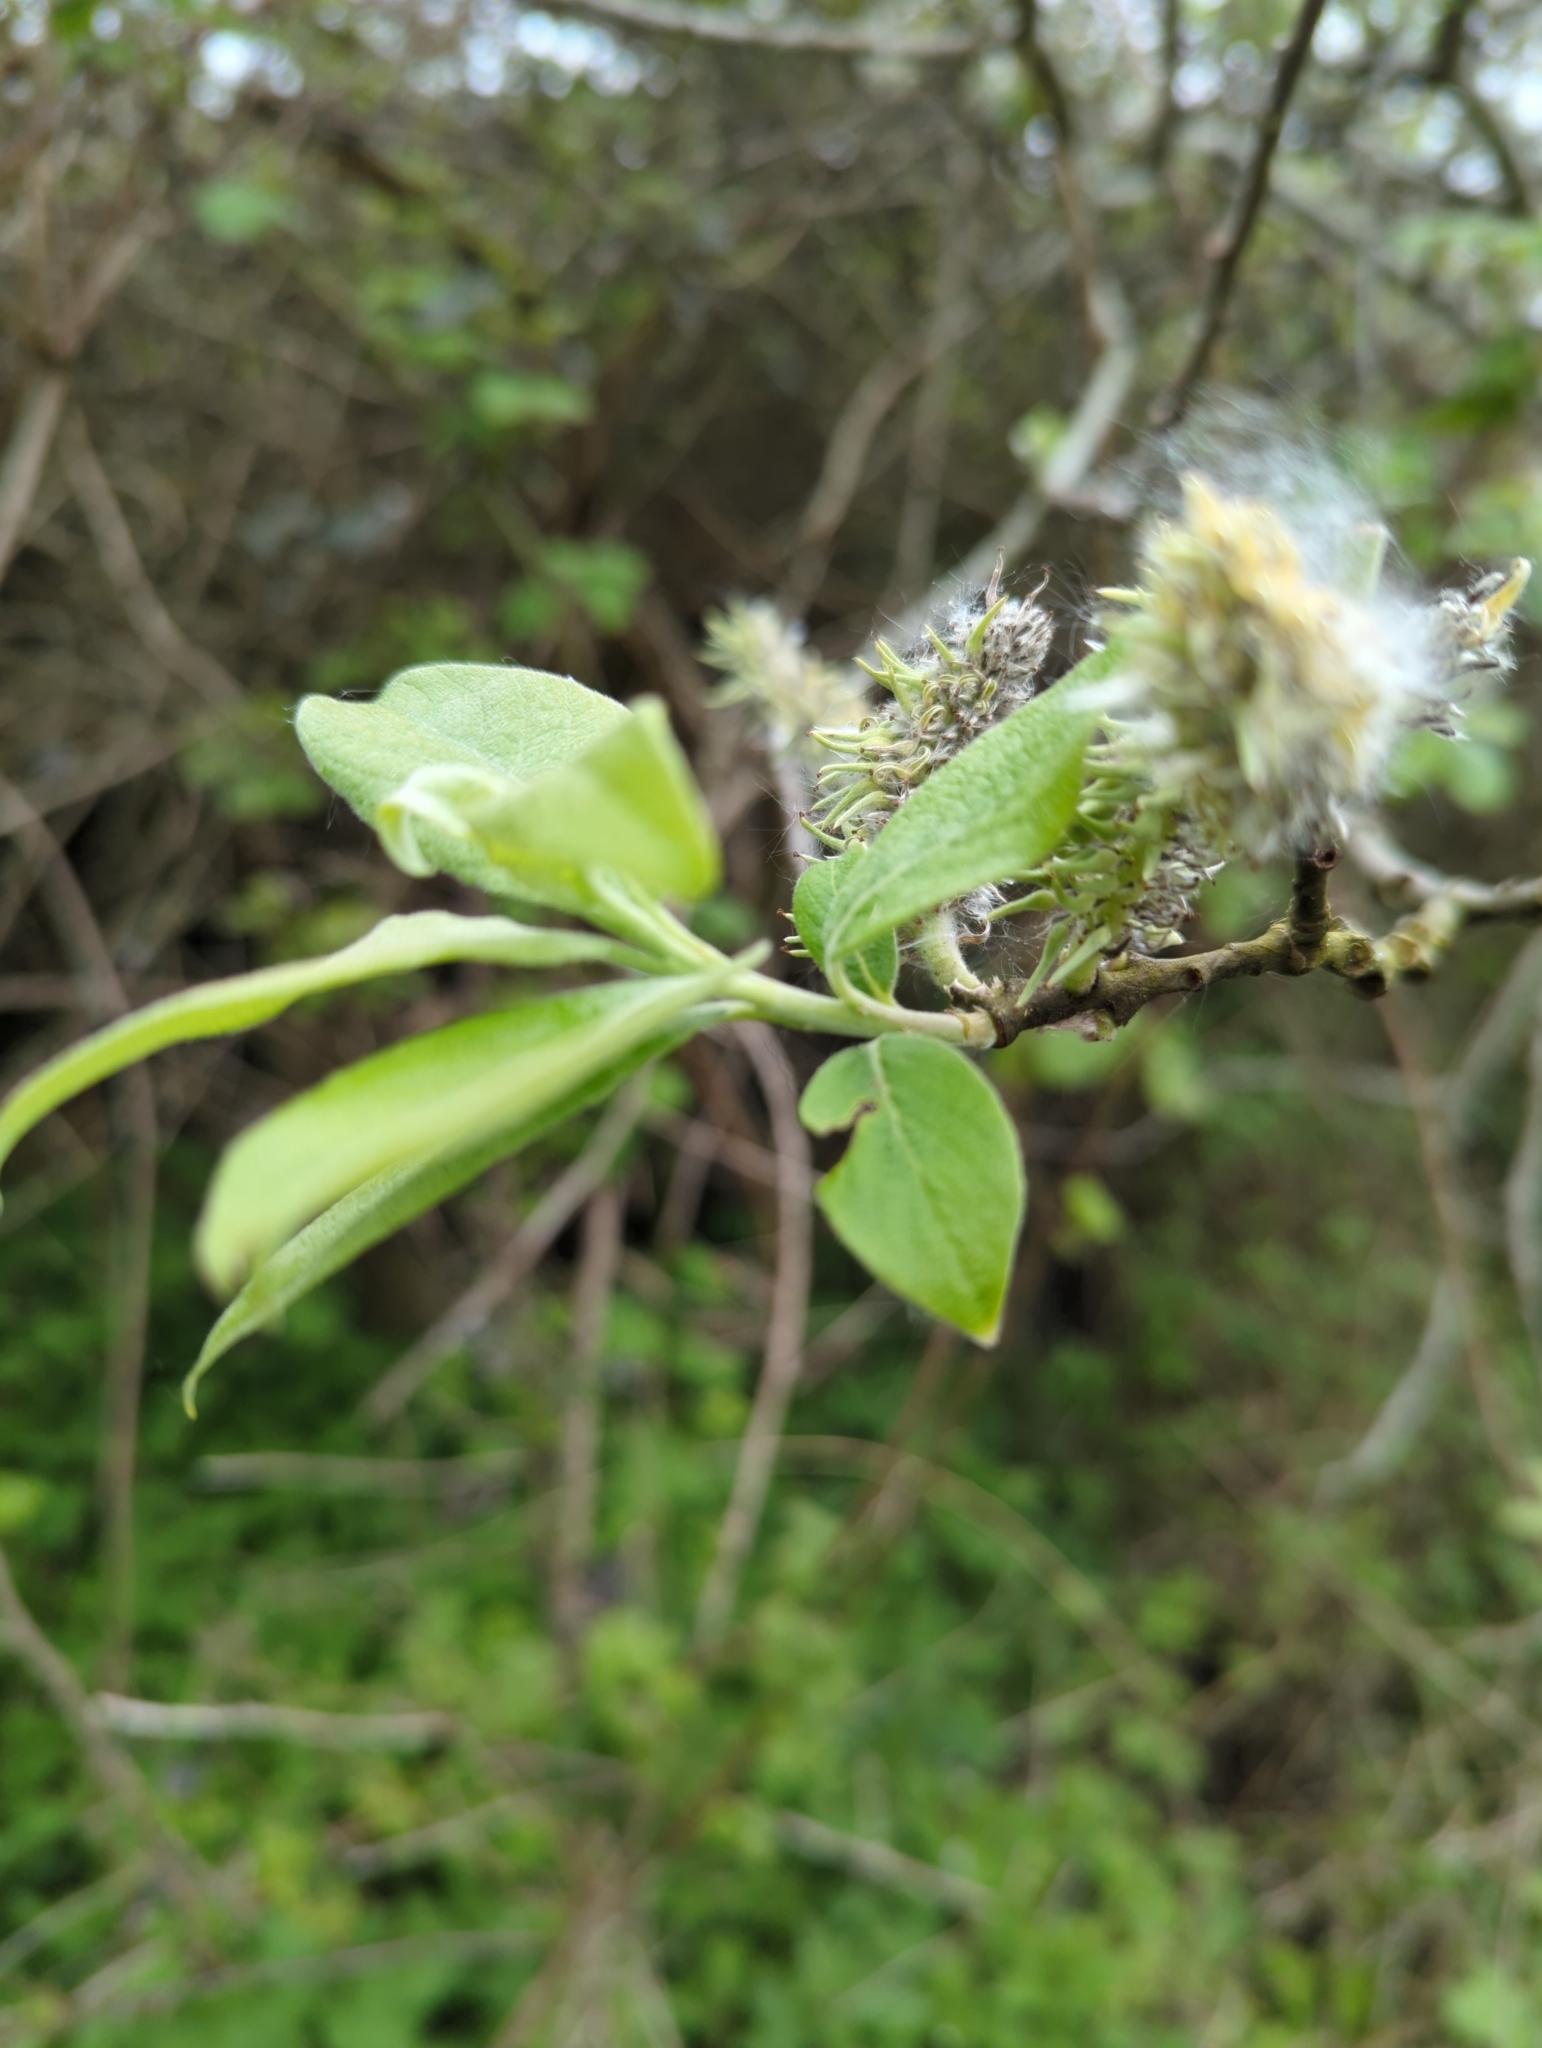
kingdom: Plantae
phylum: Tracheophyta
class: Magnoliopsida
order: Malpighiales
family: Salicaceae
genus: Salix
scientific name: Salix caprea
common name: Goat willow
